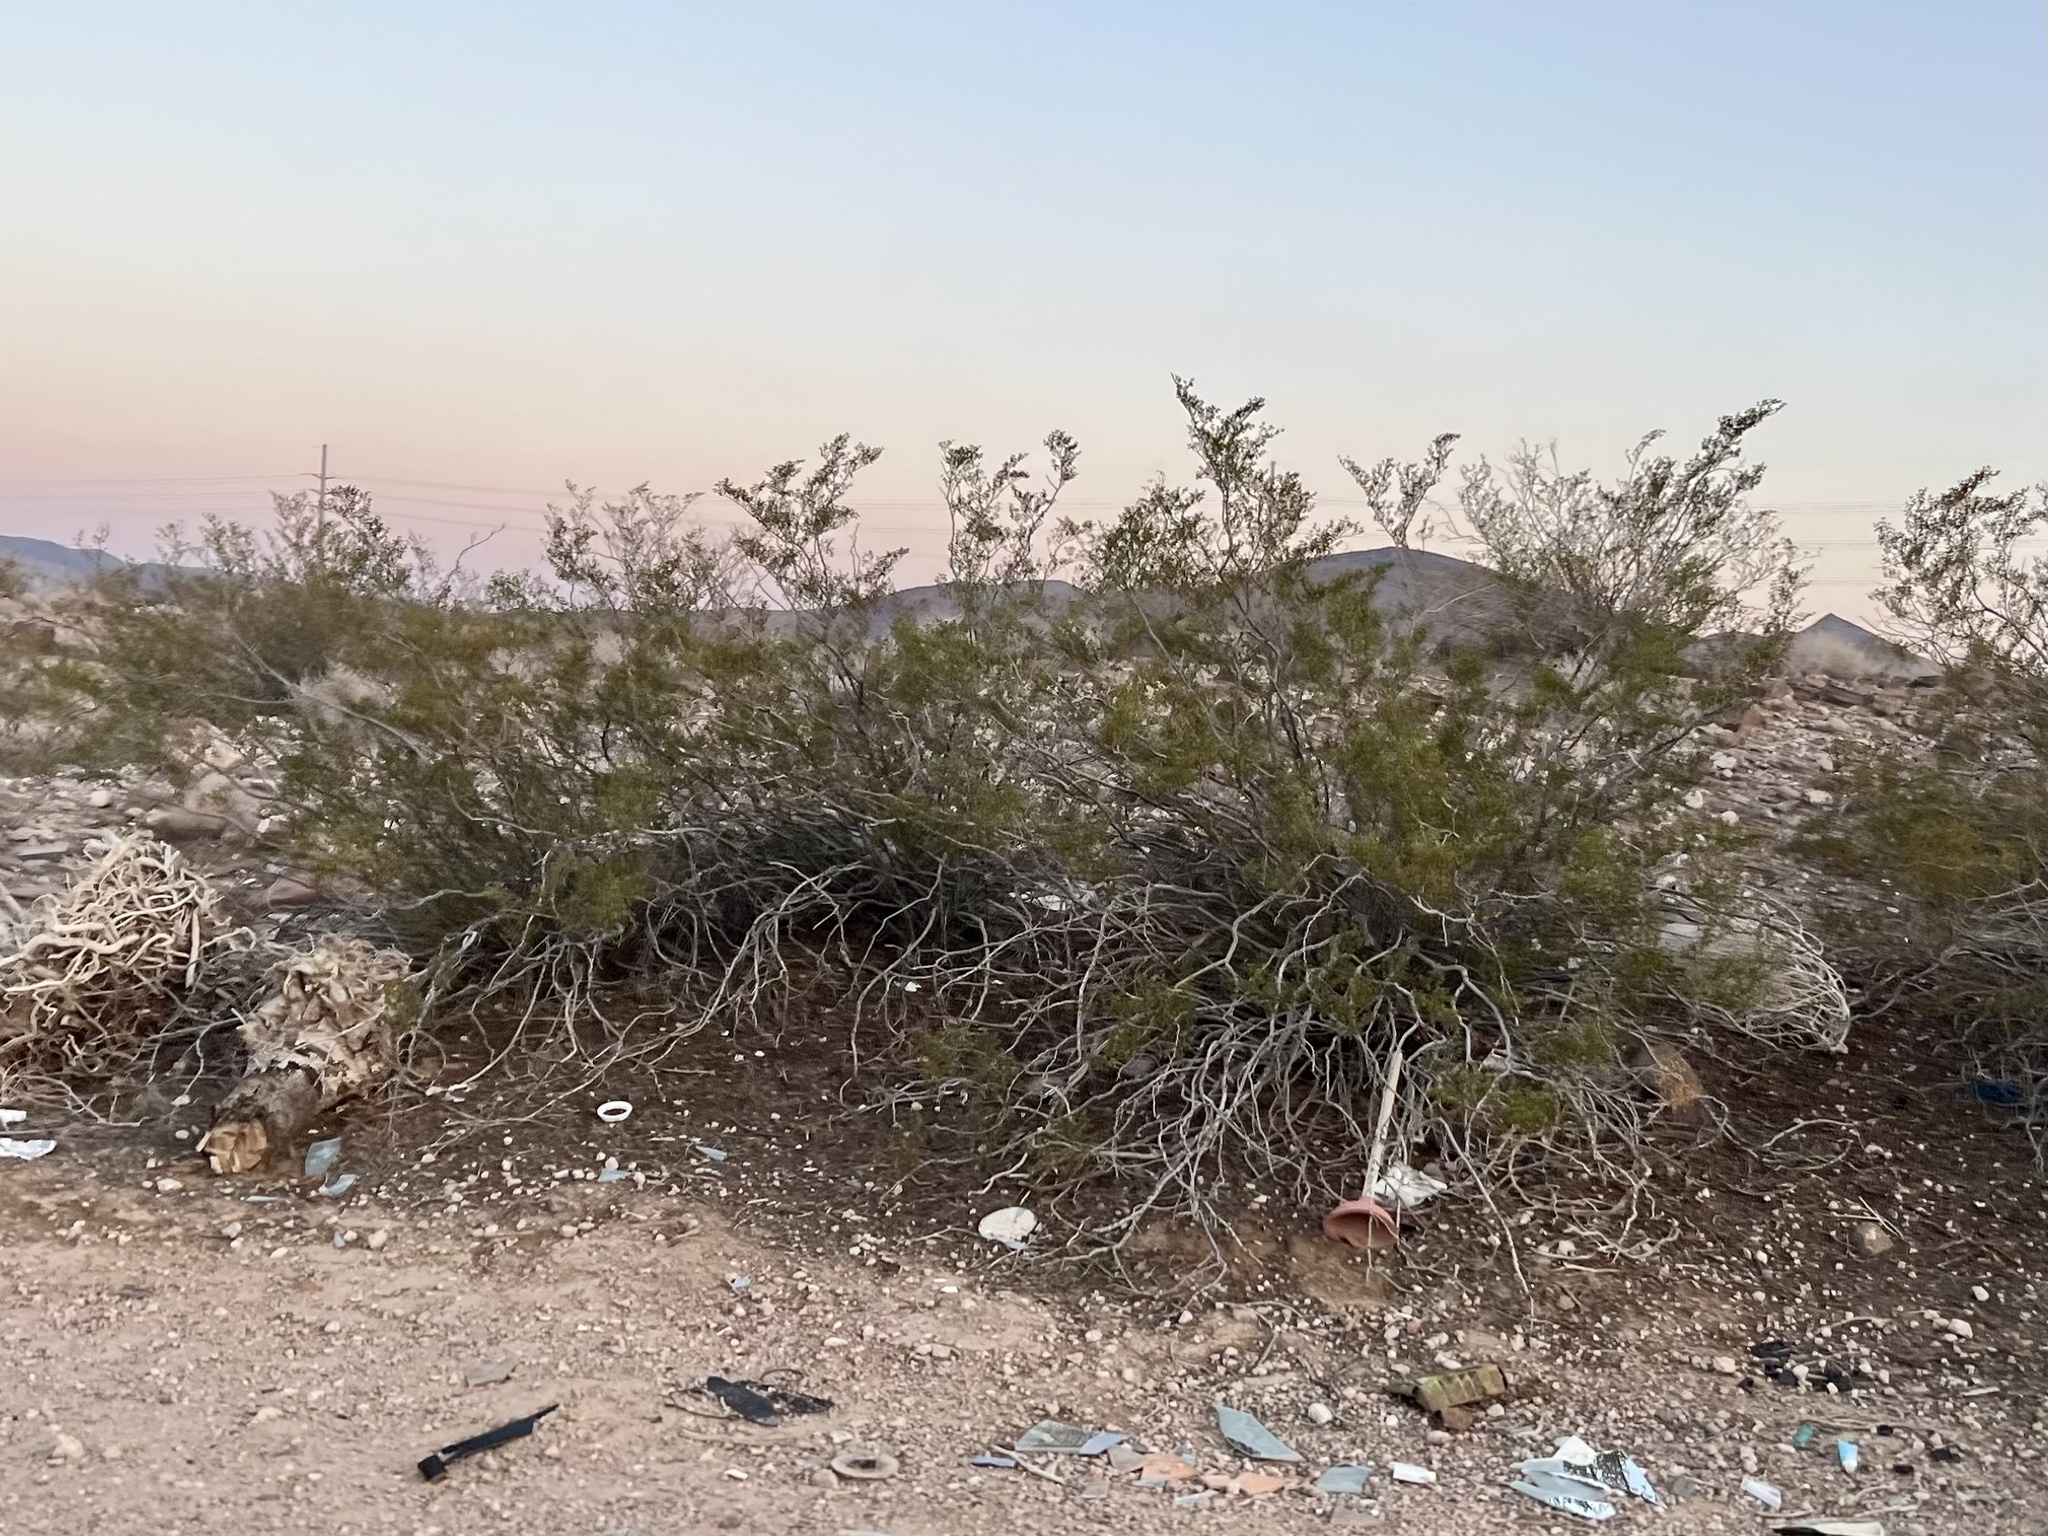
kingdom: Plantae
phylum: Tracheophyta
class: Magnoliopsida
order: Zygophyllales
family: Zygophyllaceae
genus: Larrea
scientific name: Larrea tridentata
